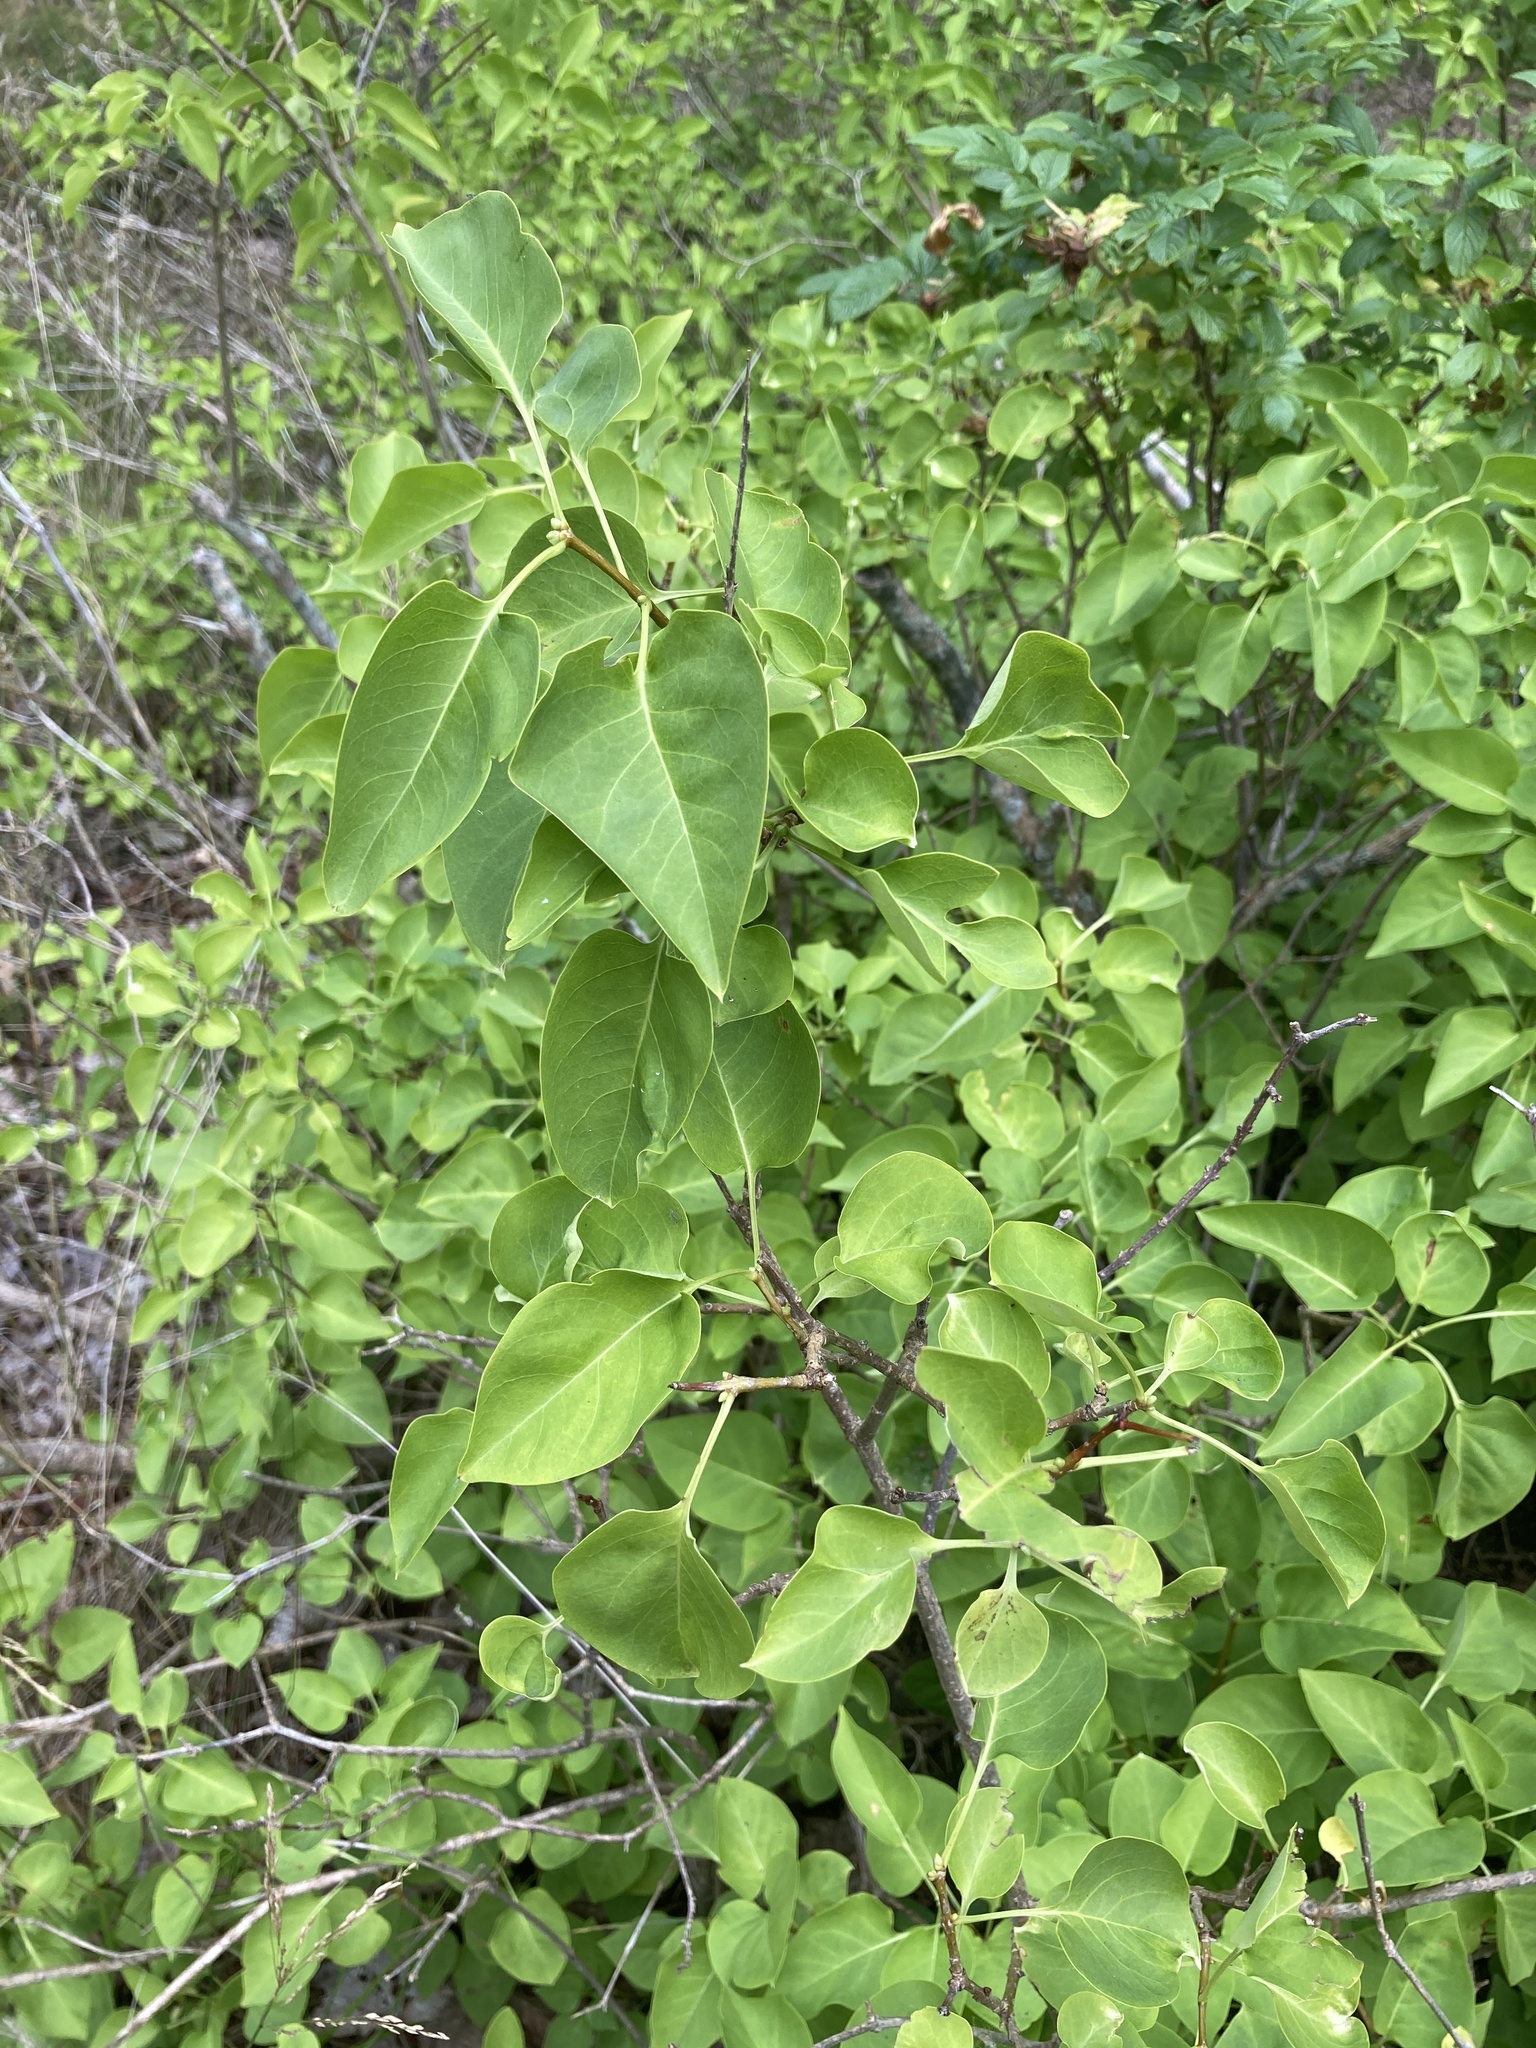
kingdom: Plantae
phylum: Tracheophyta
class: Magnoliopsida
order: Lamiales
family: Oleaceae
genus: Syringa
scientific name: Syringa vulgaris
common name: Common lilac
